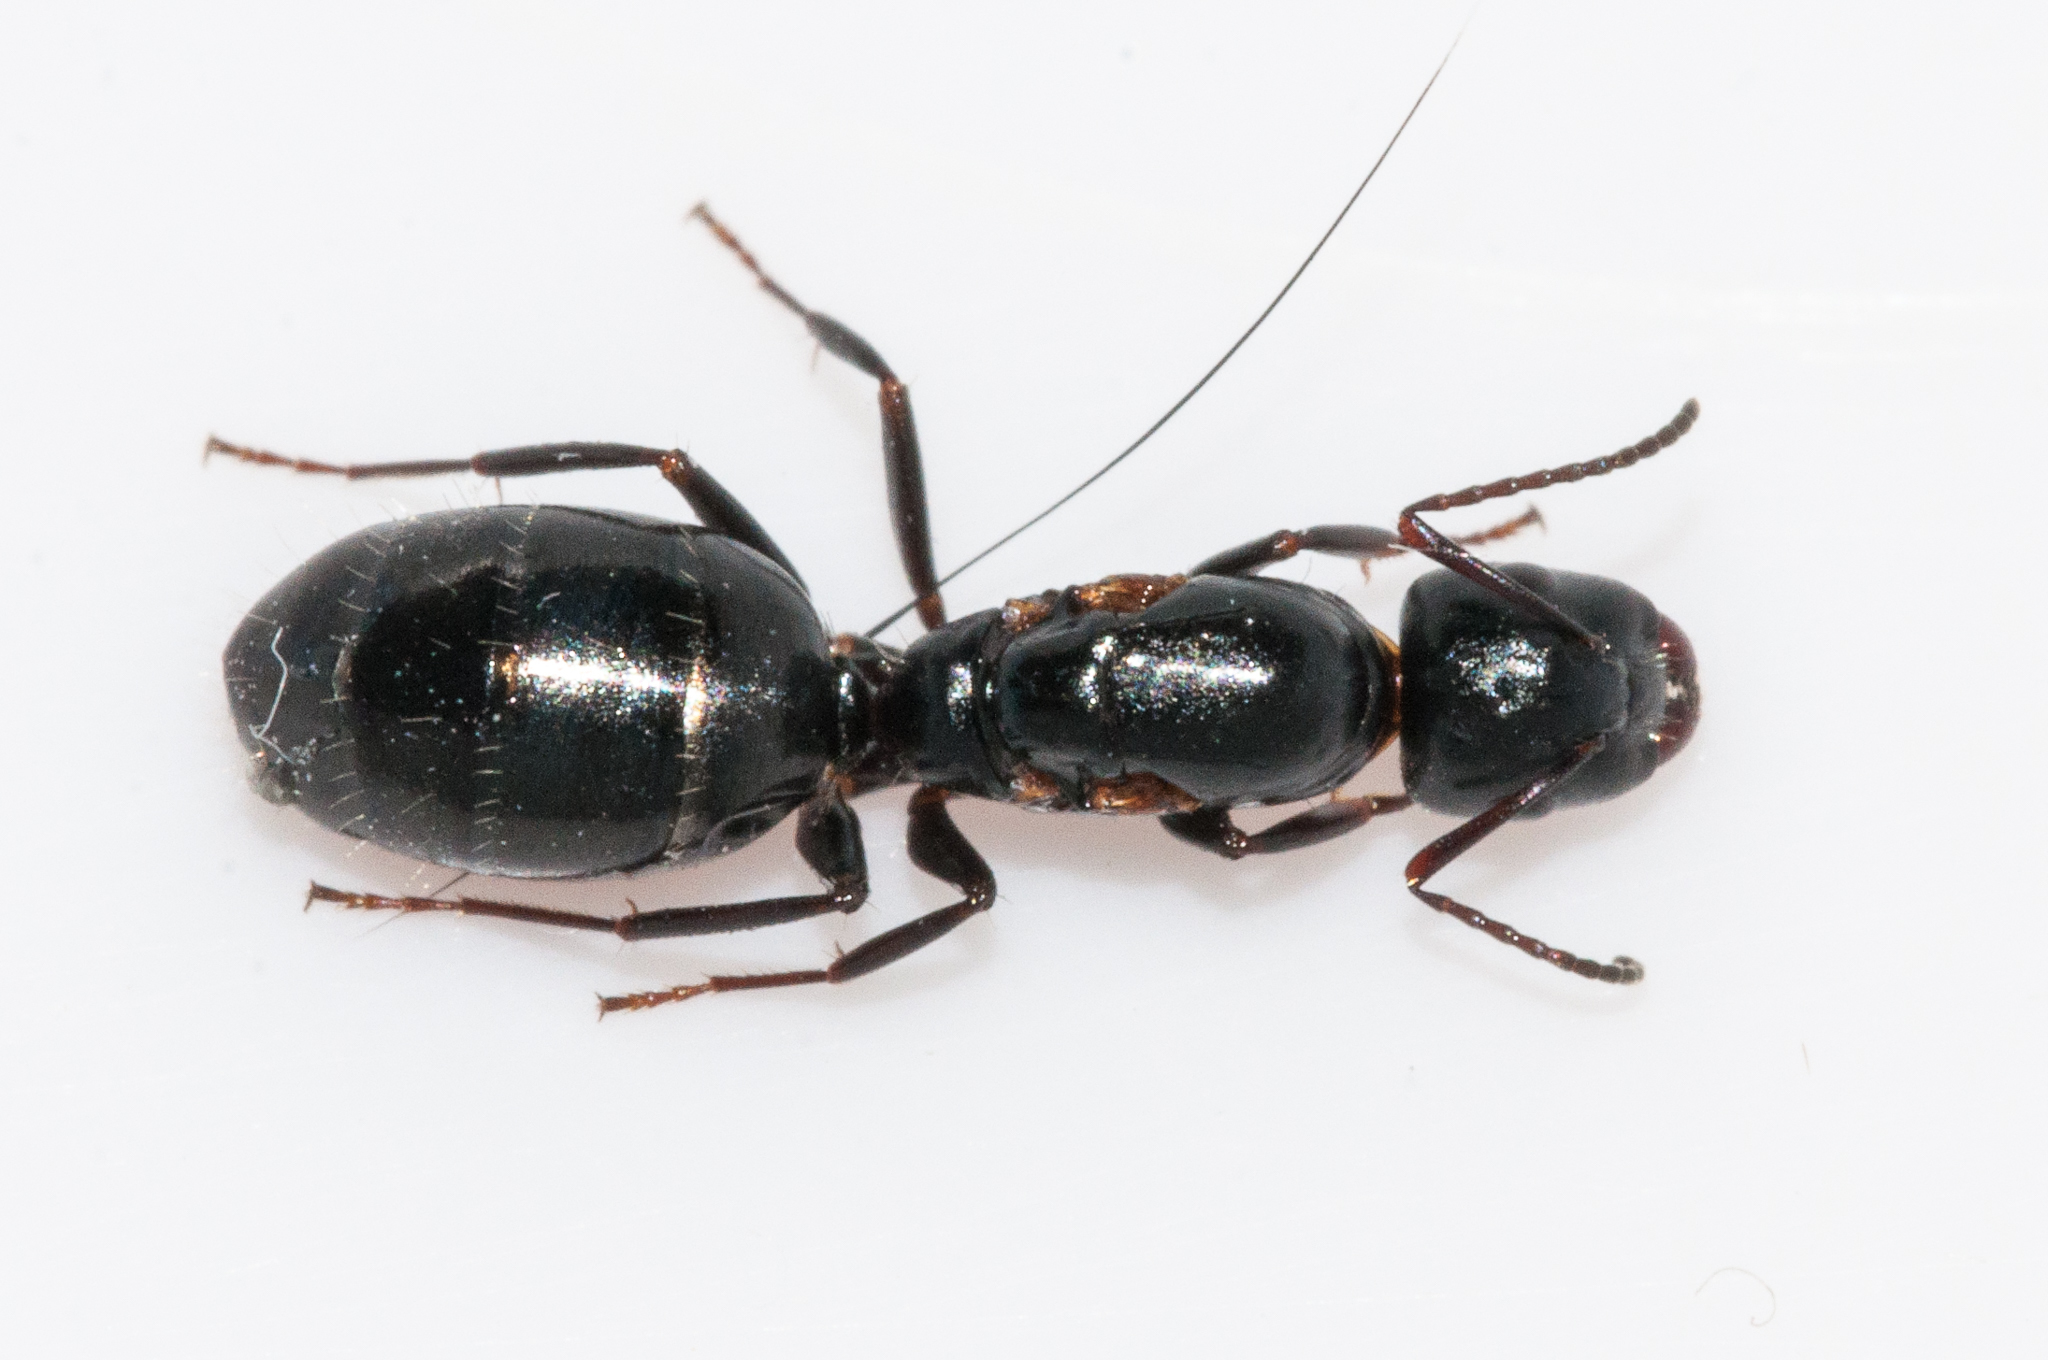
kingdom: Animalia
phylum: Arthropoda
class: Insecta
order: Hymenoptera
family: Formicidae
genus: Camponotus
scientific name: Camponotus werthi
